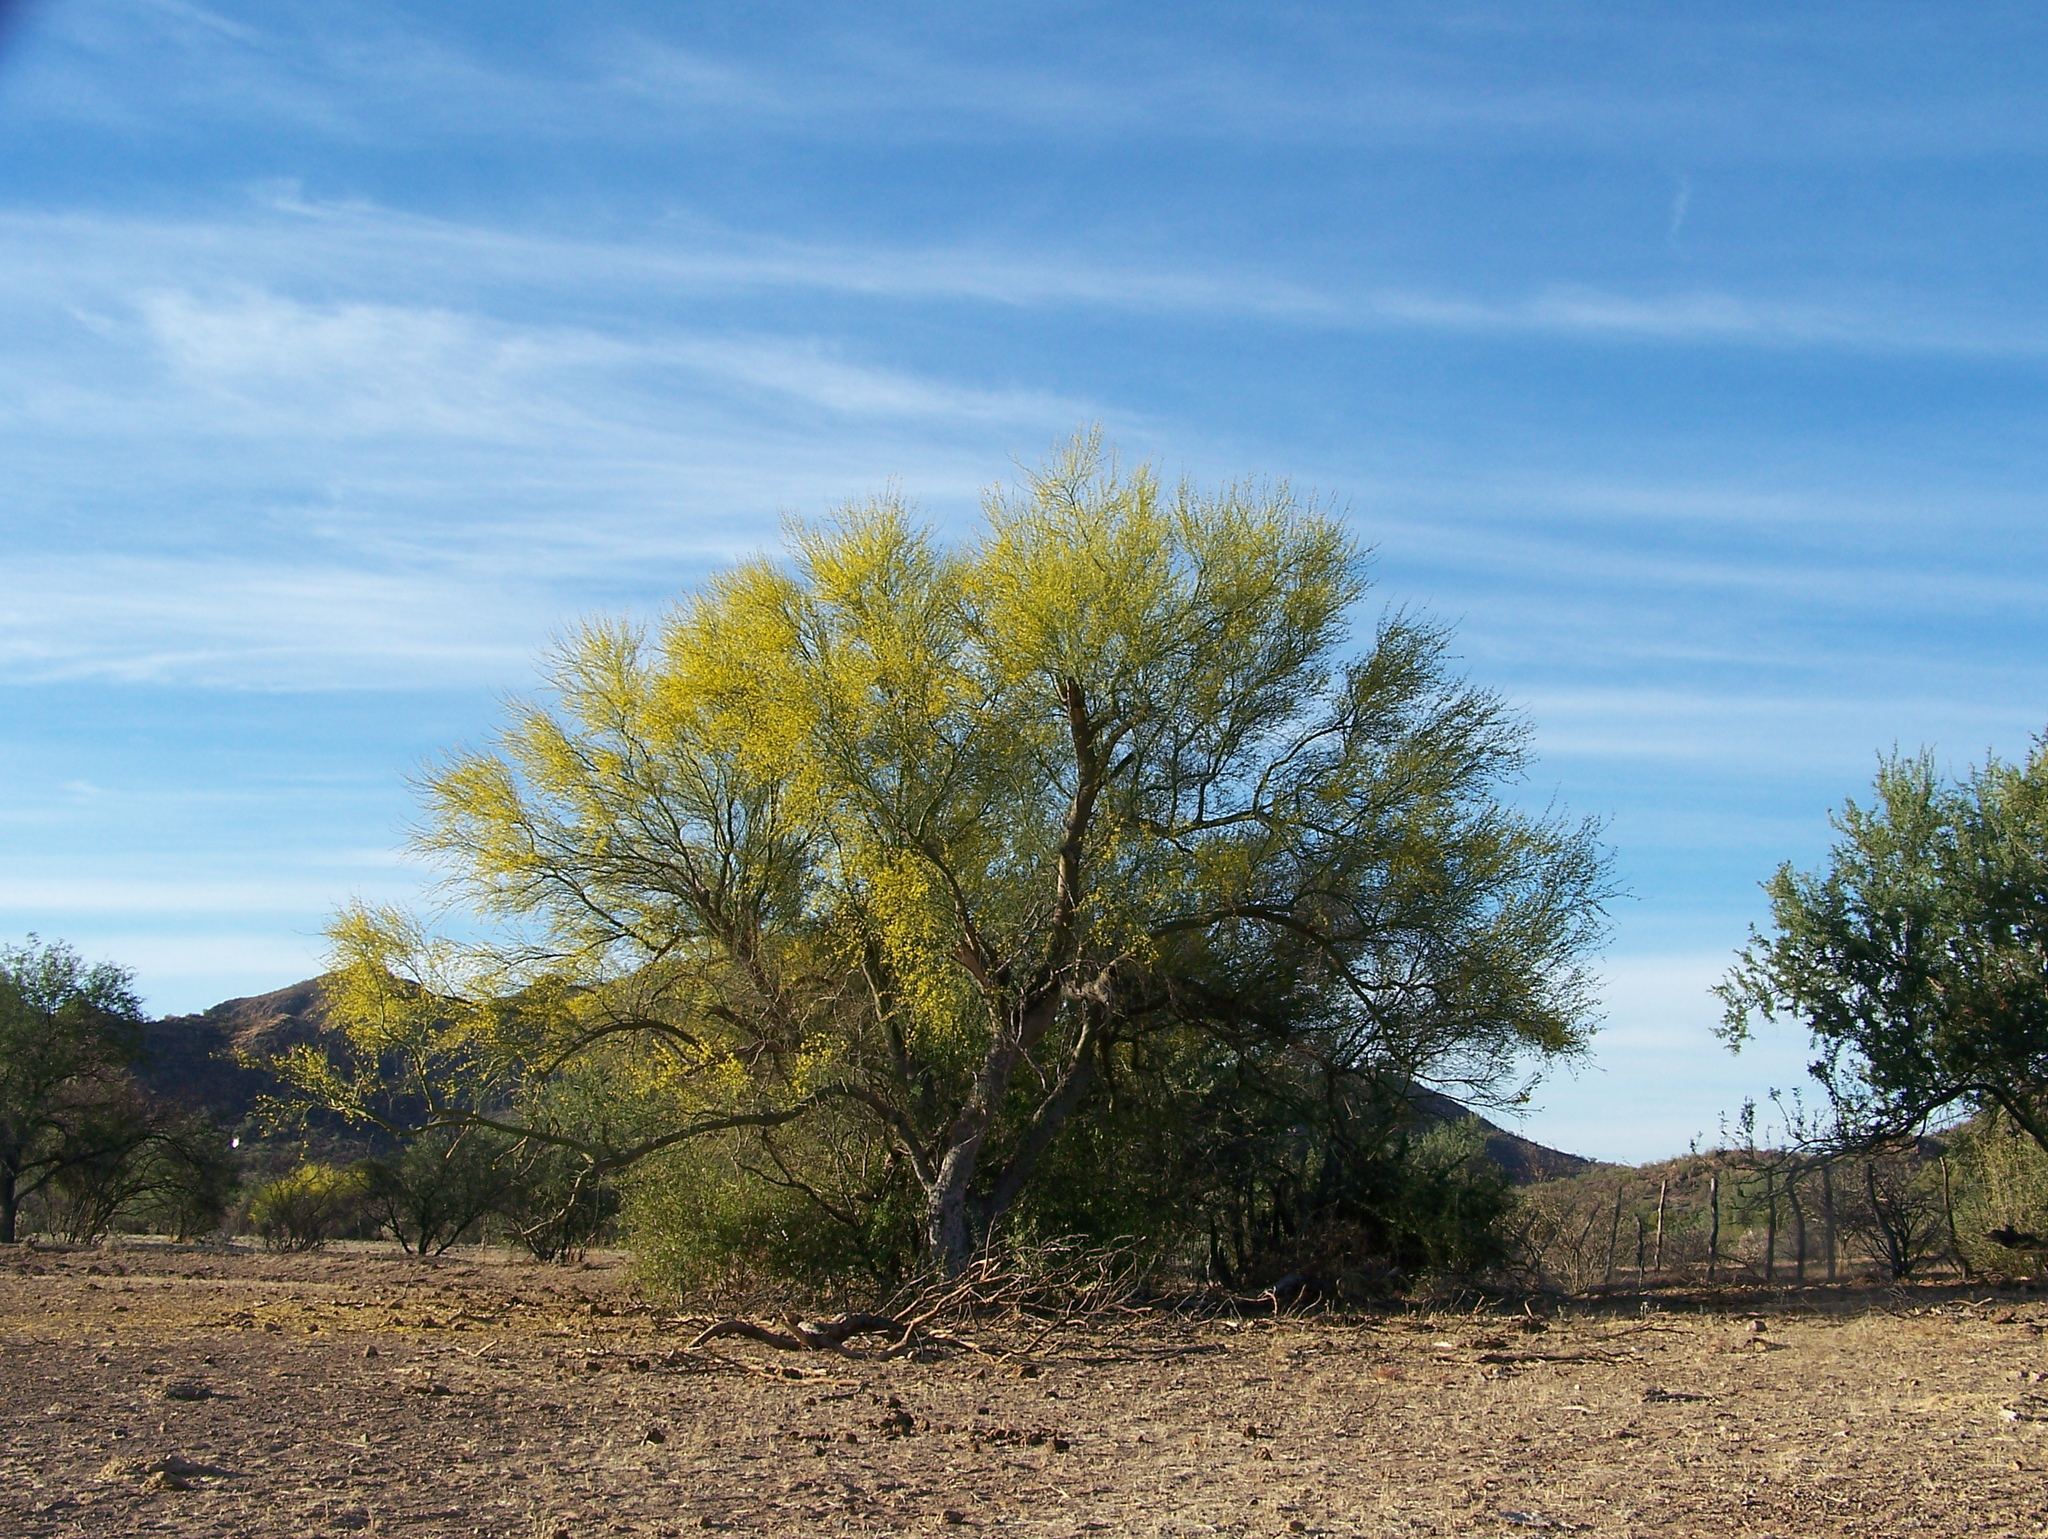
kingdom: Plantae
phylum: Tracheophyta
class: Magnoliopsida
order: Fabales
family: Fabaceae
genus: Parkinsonia
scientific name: Parkinsonia florida
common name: Blue paloverde
